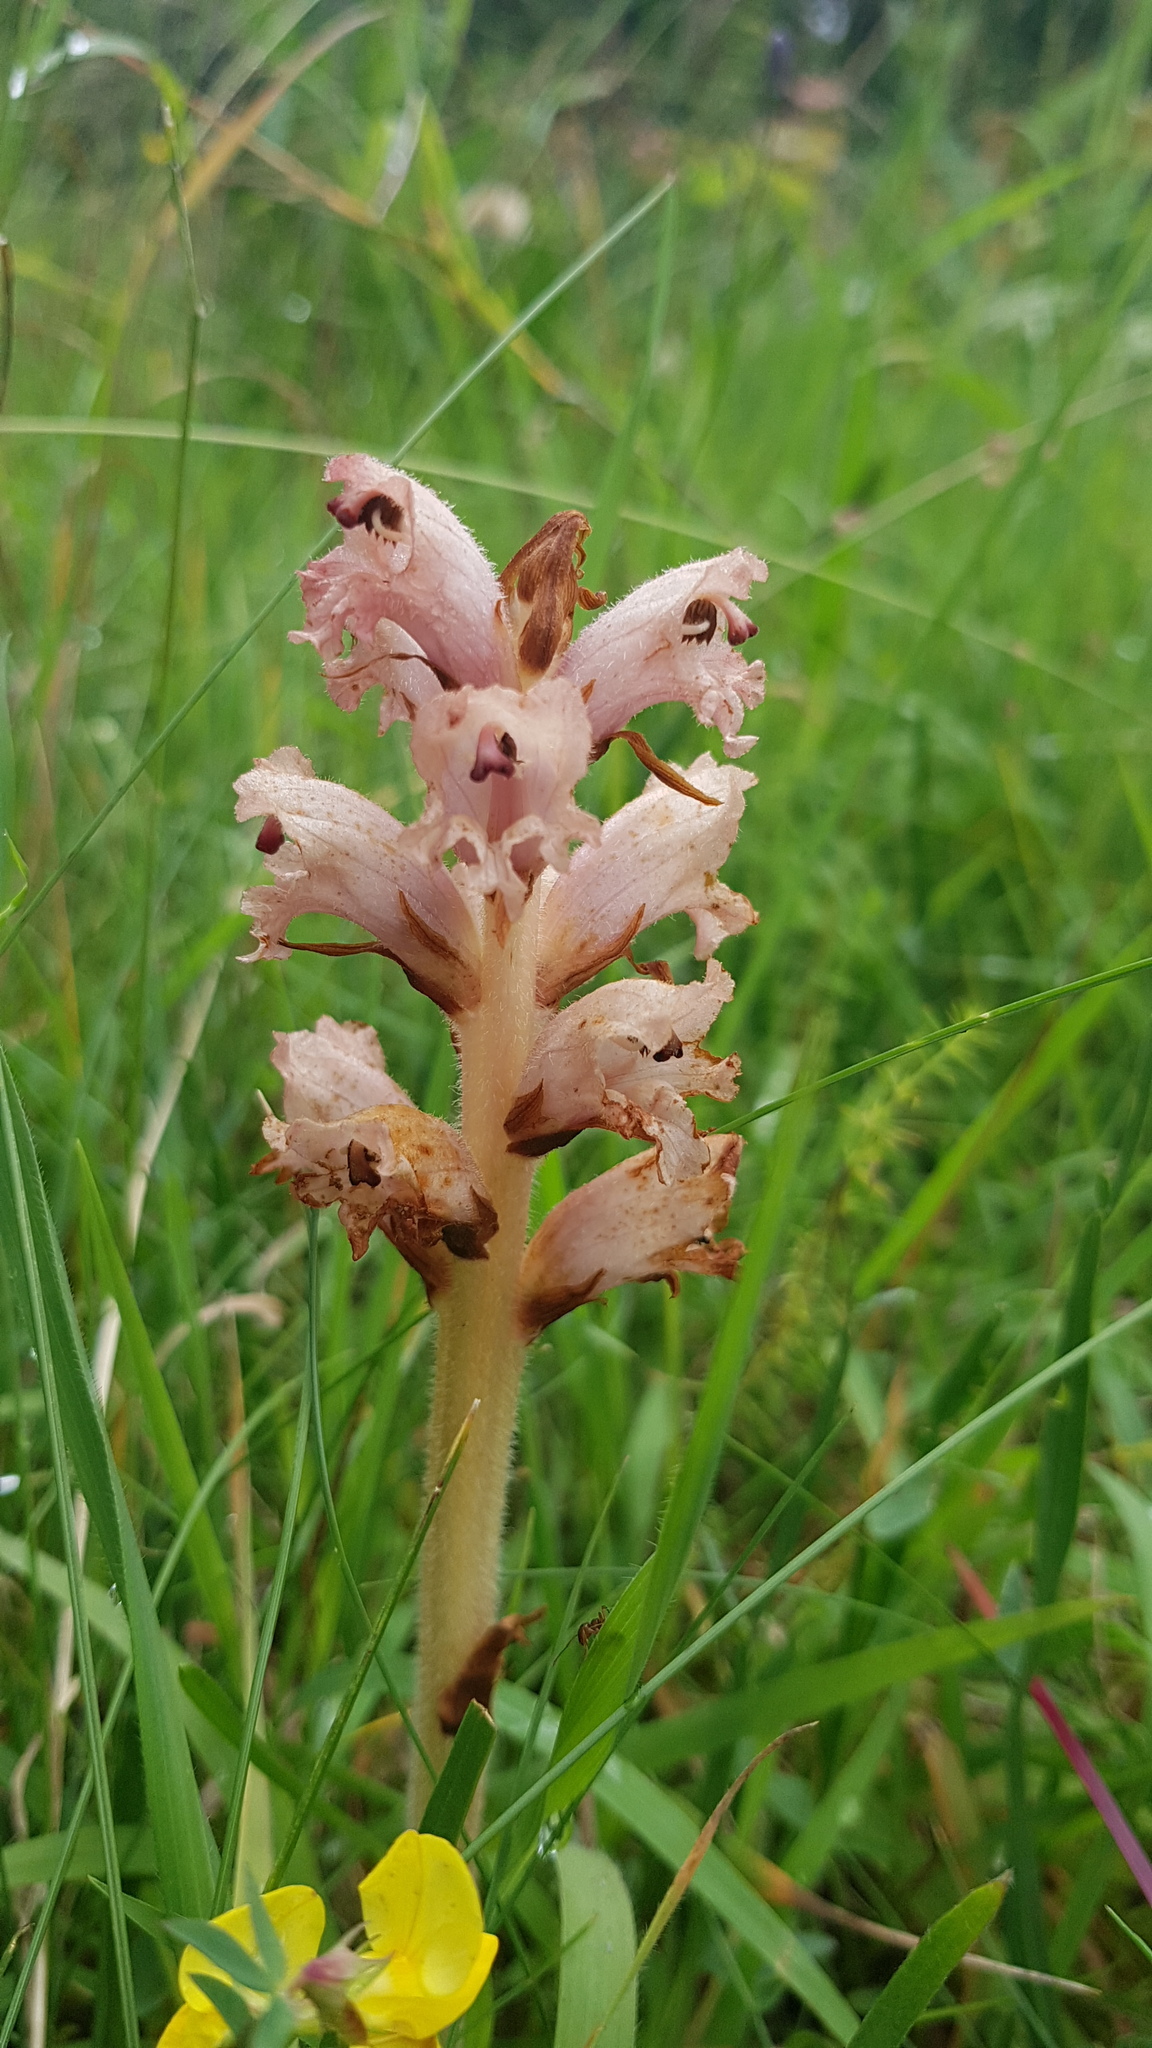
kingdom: Plantae
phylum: Tracheophyta
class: Magnoliopsida
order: Lamiales
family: Orobanchaceae
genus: Orobanche
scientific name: Orobanche caryophyllacea
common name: Bedstraw broomrape
